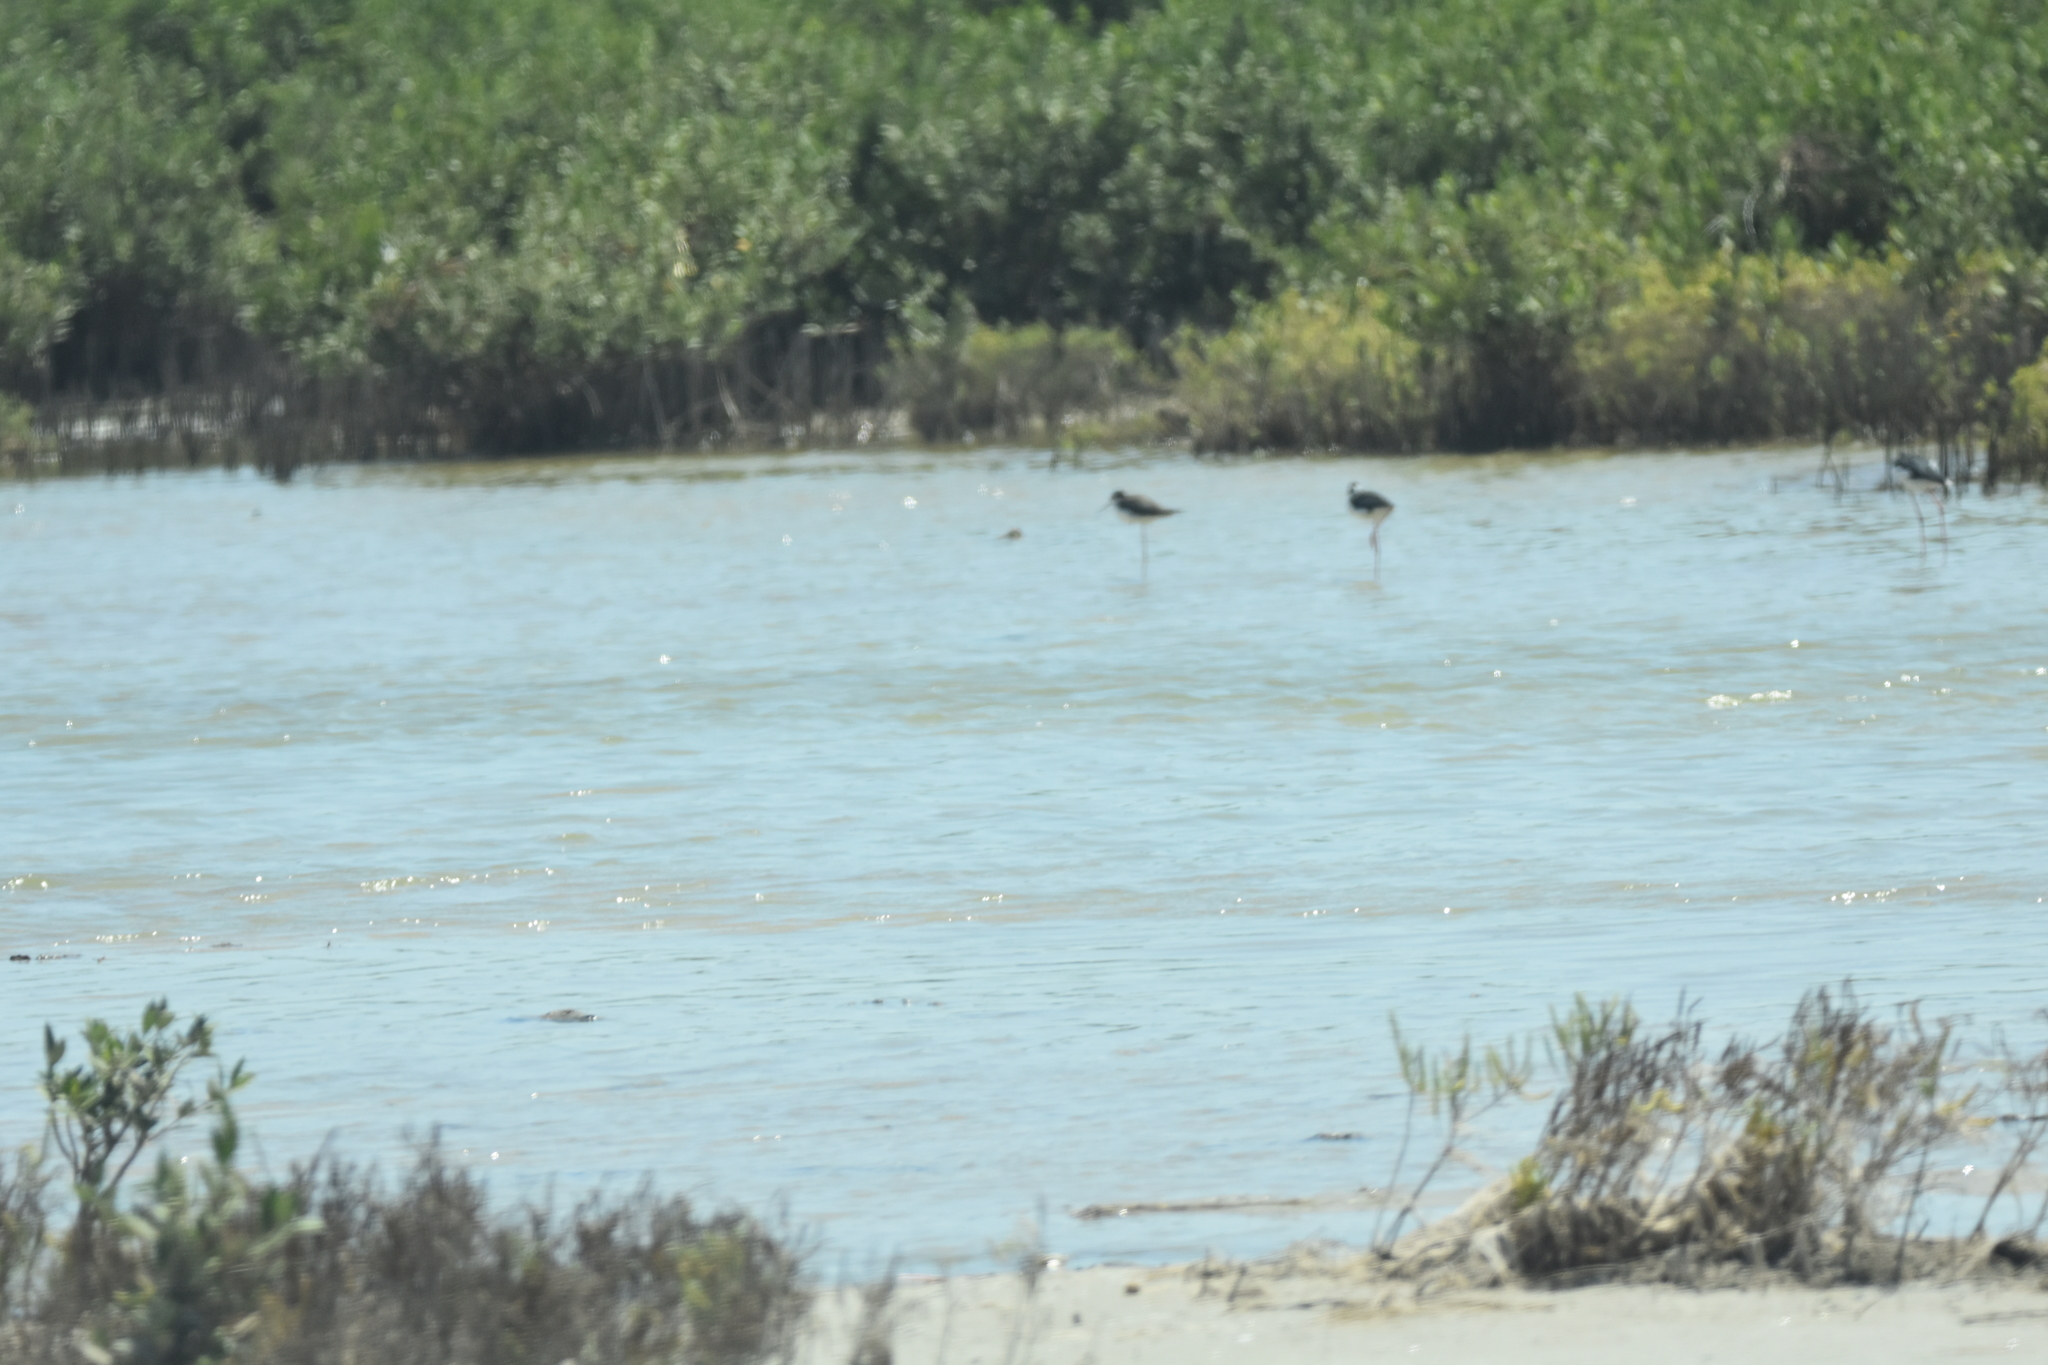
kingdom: Animalia
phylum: Chordata
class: Aves
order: Charadriiformes
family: Recurvirostridae
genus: Himantopus
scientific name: Himantopus mexicanus
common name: Black-necked stilt
